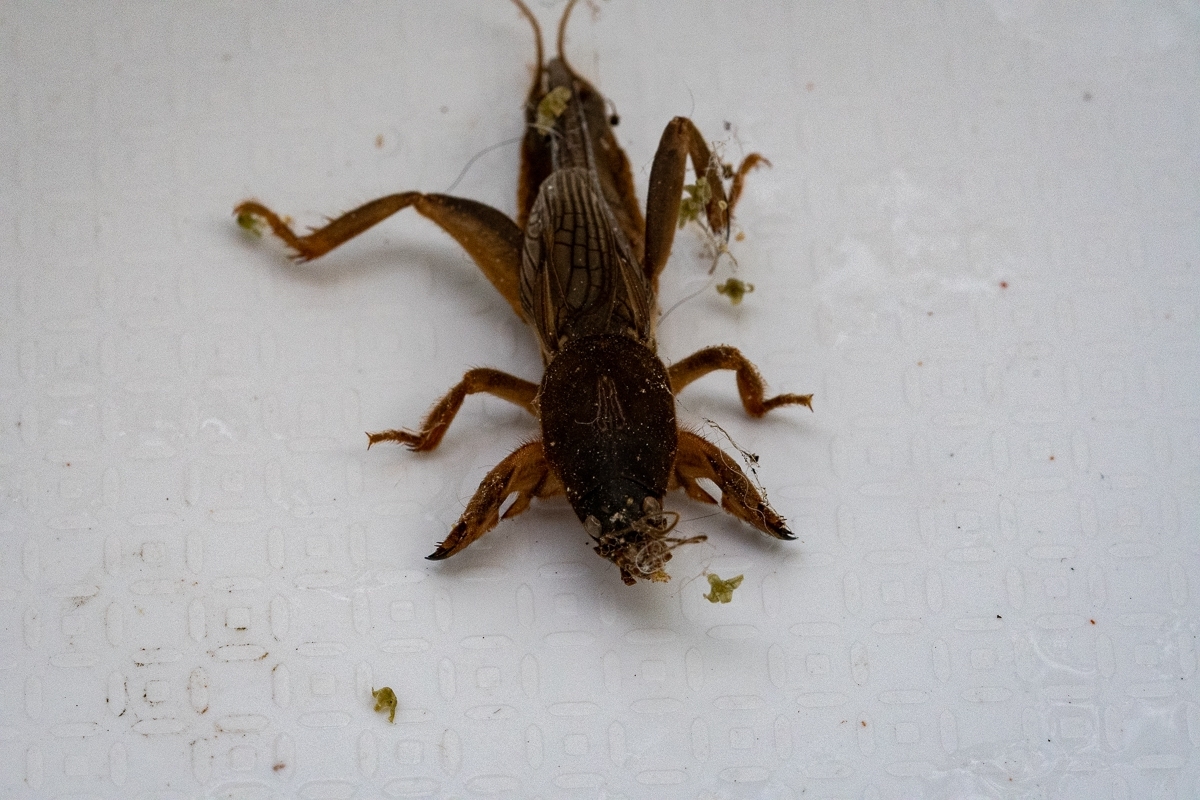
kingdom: Animalia
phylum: Arthropoda
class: Insecta
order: Orthoptera
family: Gryllotalpidae
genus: Gryllotalpa
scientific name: Gryllotalpa africana
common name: African mole cricket
